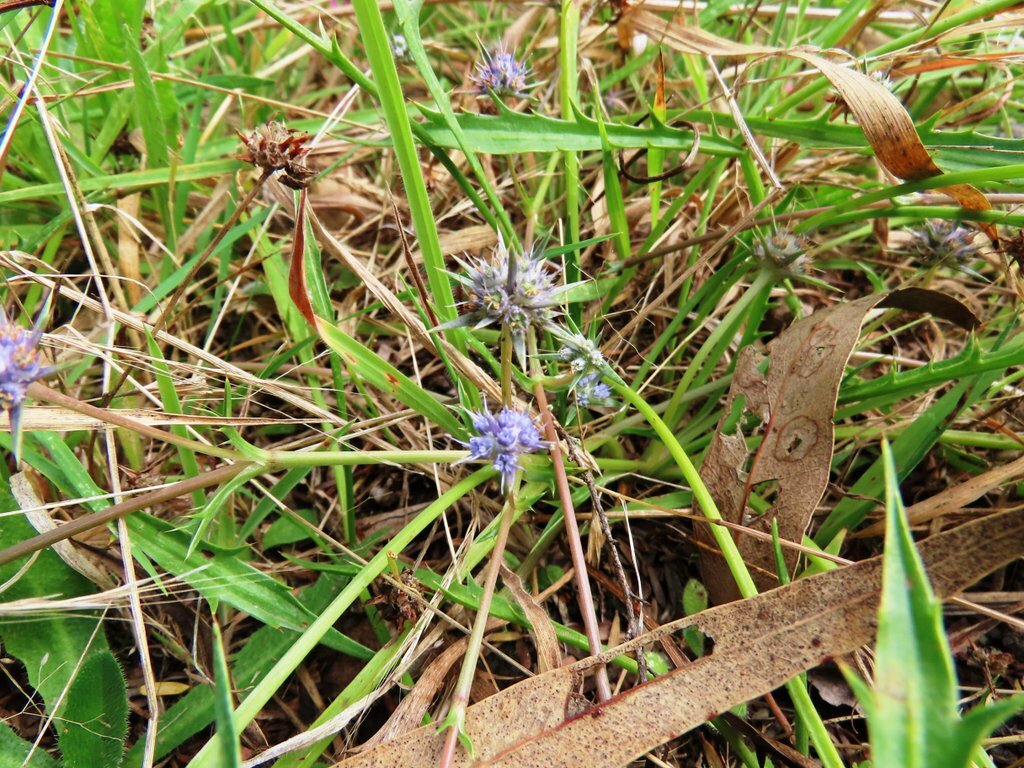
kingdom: Plantae
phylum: Tracheophyta
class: Magnoliopsida
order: Apiales
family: Apiaceae
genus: Eryngium
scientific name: Eryngium vesiculosum
